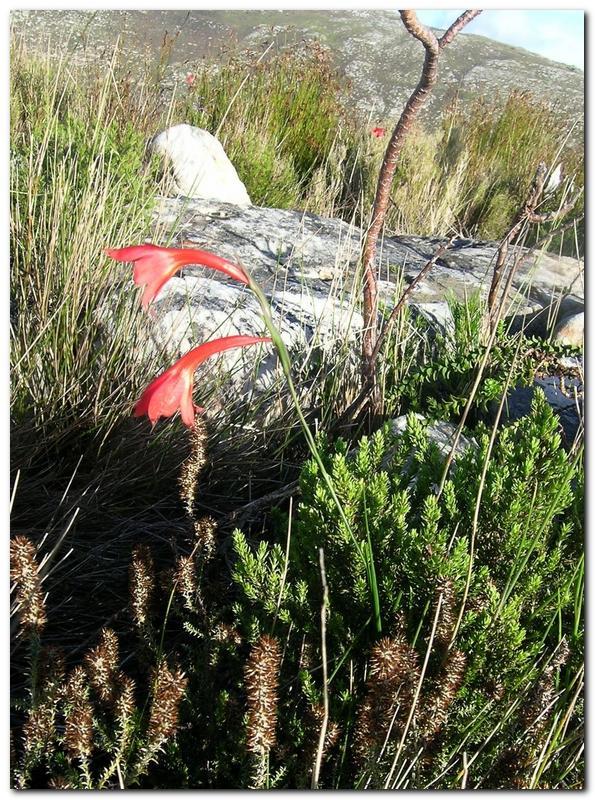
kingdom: Plantae
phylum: Tracheophyta
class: Liliopsida
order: Asparagales
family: Iridaceae
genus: Gladiolus
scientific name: Gladiolus teretifolius
